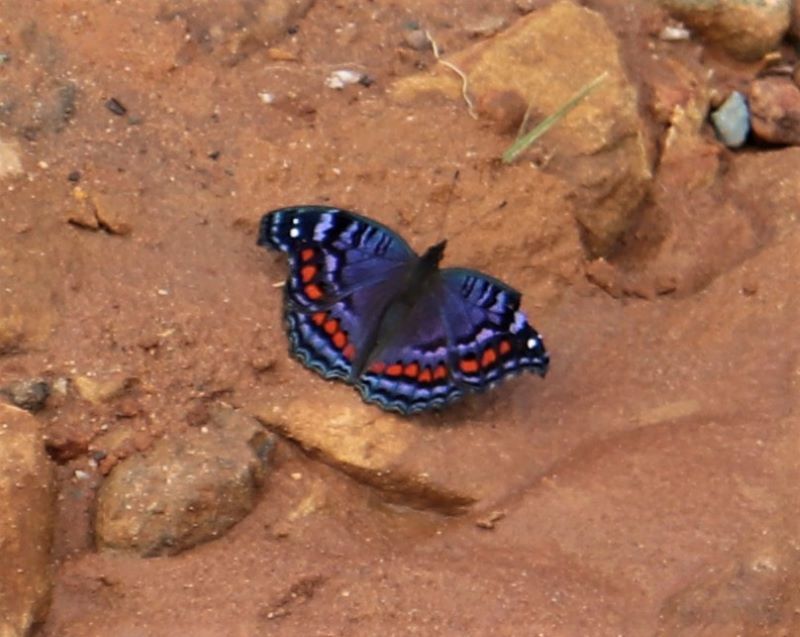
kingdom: Animalia
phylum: Arthropoda
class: Insecta
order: Lepidoptera
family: Nymphalidae
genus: Precis
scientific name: Precis octavia
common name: Gaudy commodore
